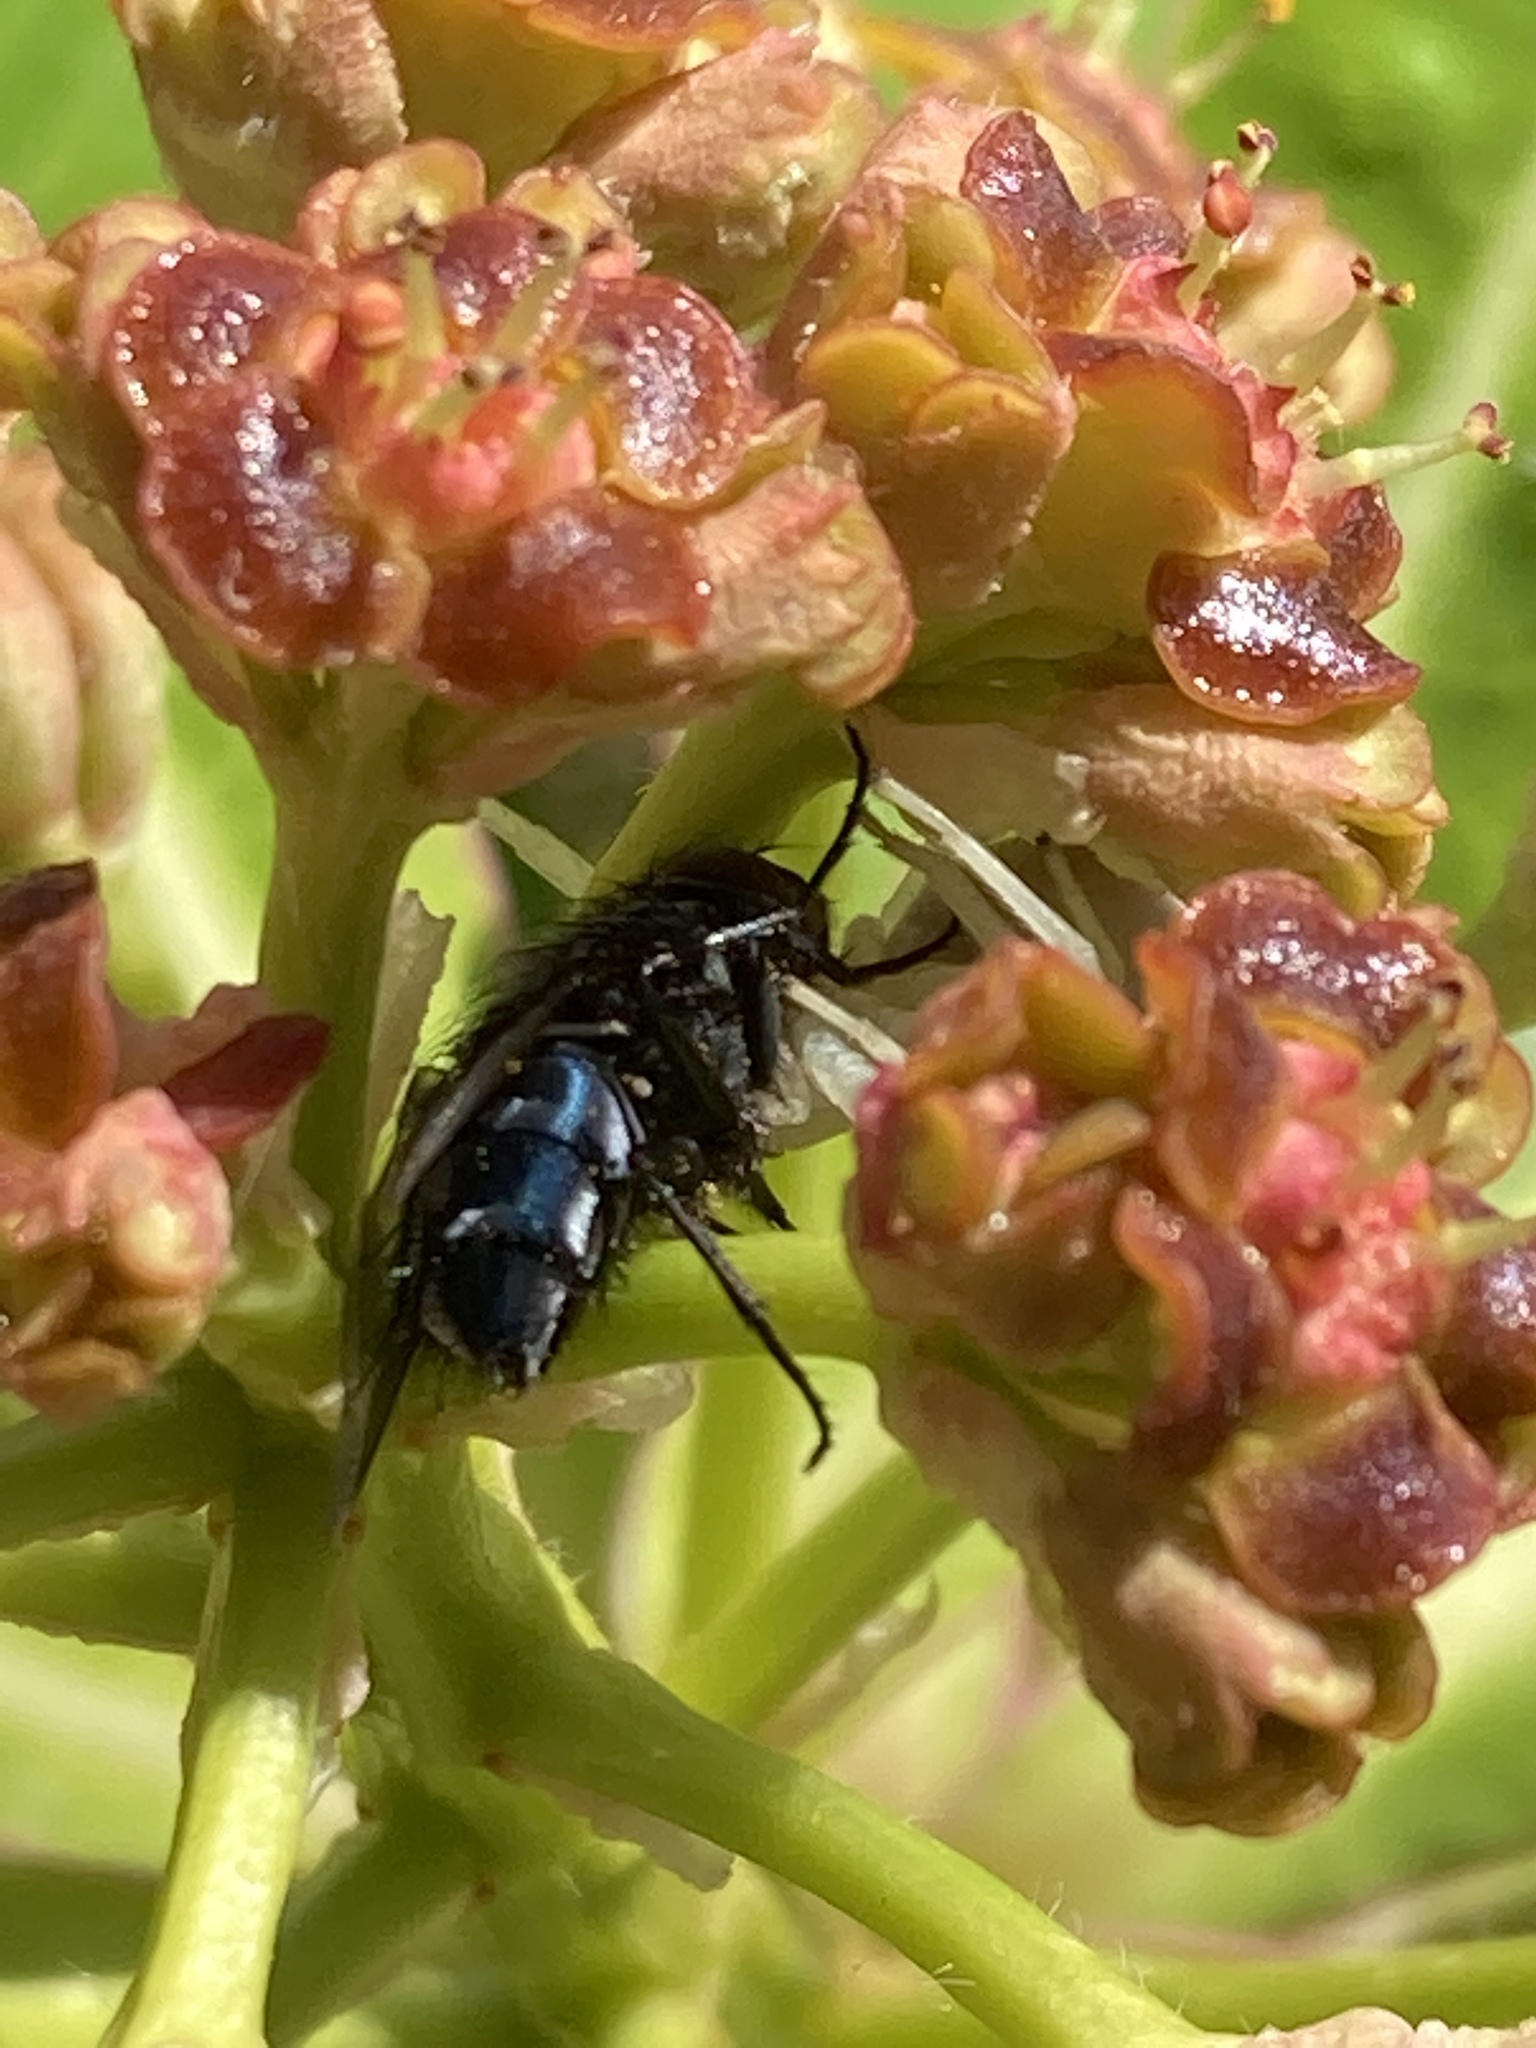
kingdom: Animalia
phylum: Arthropoda
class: Arachnida
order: Araneae
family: Thomisidae
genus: Misumena
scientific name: Misumena vatia
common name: Goldenrod crab spider
